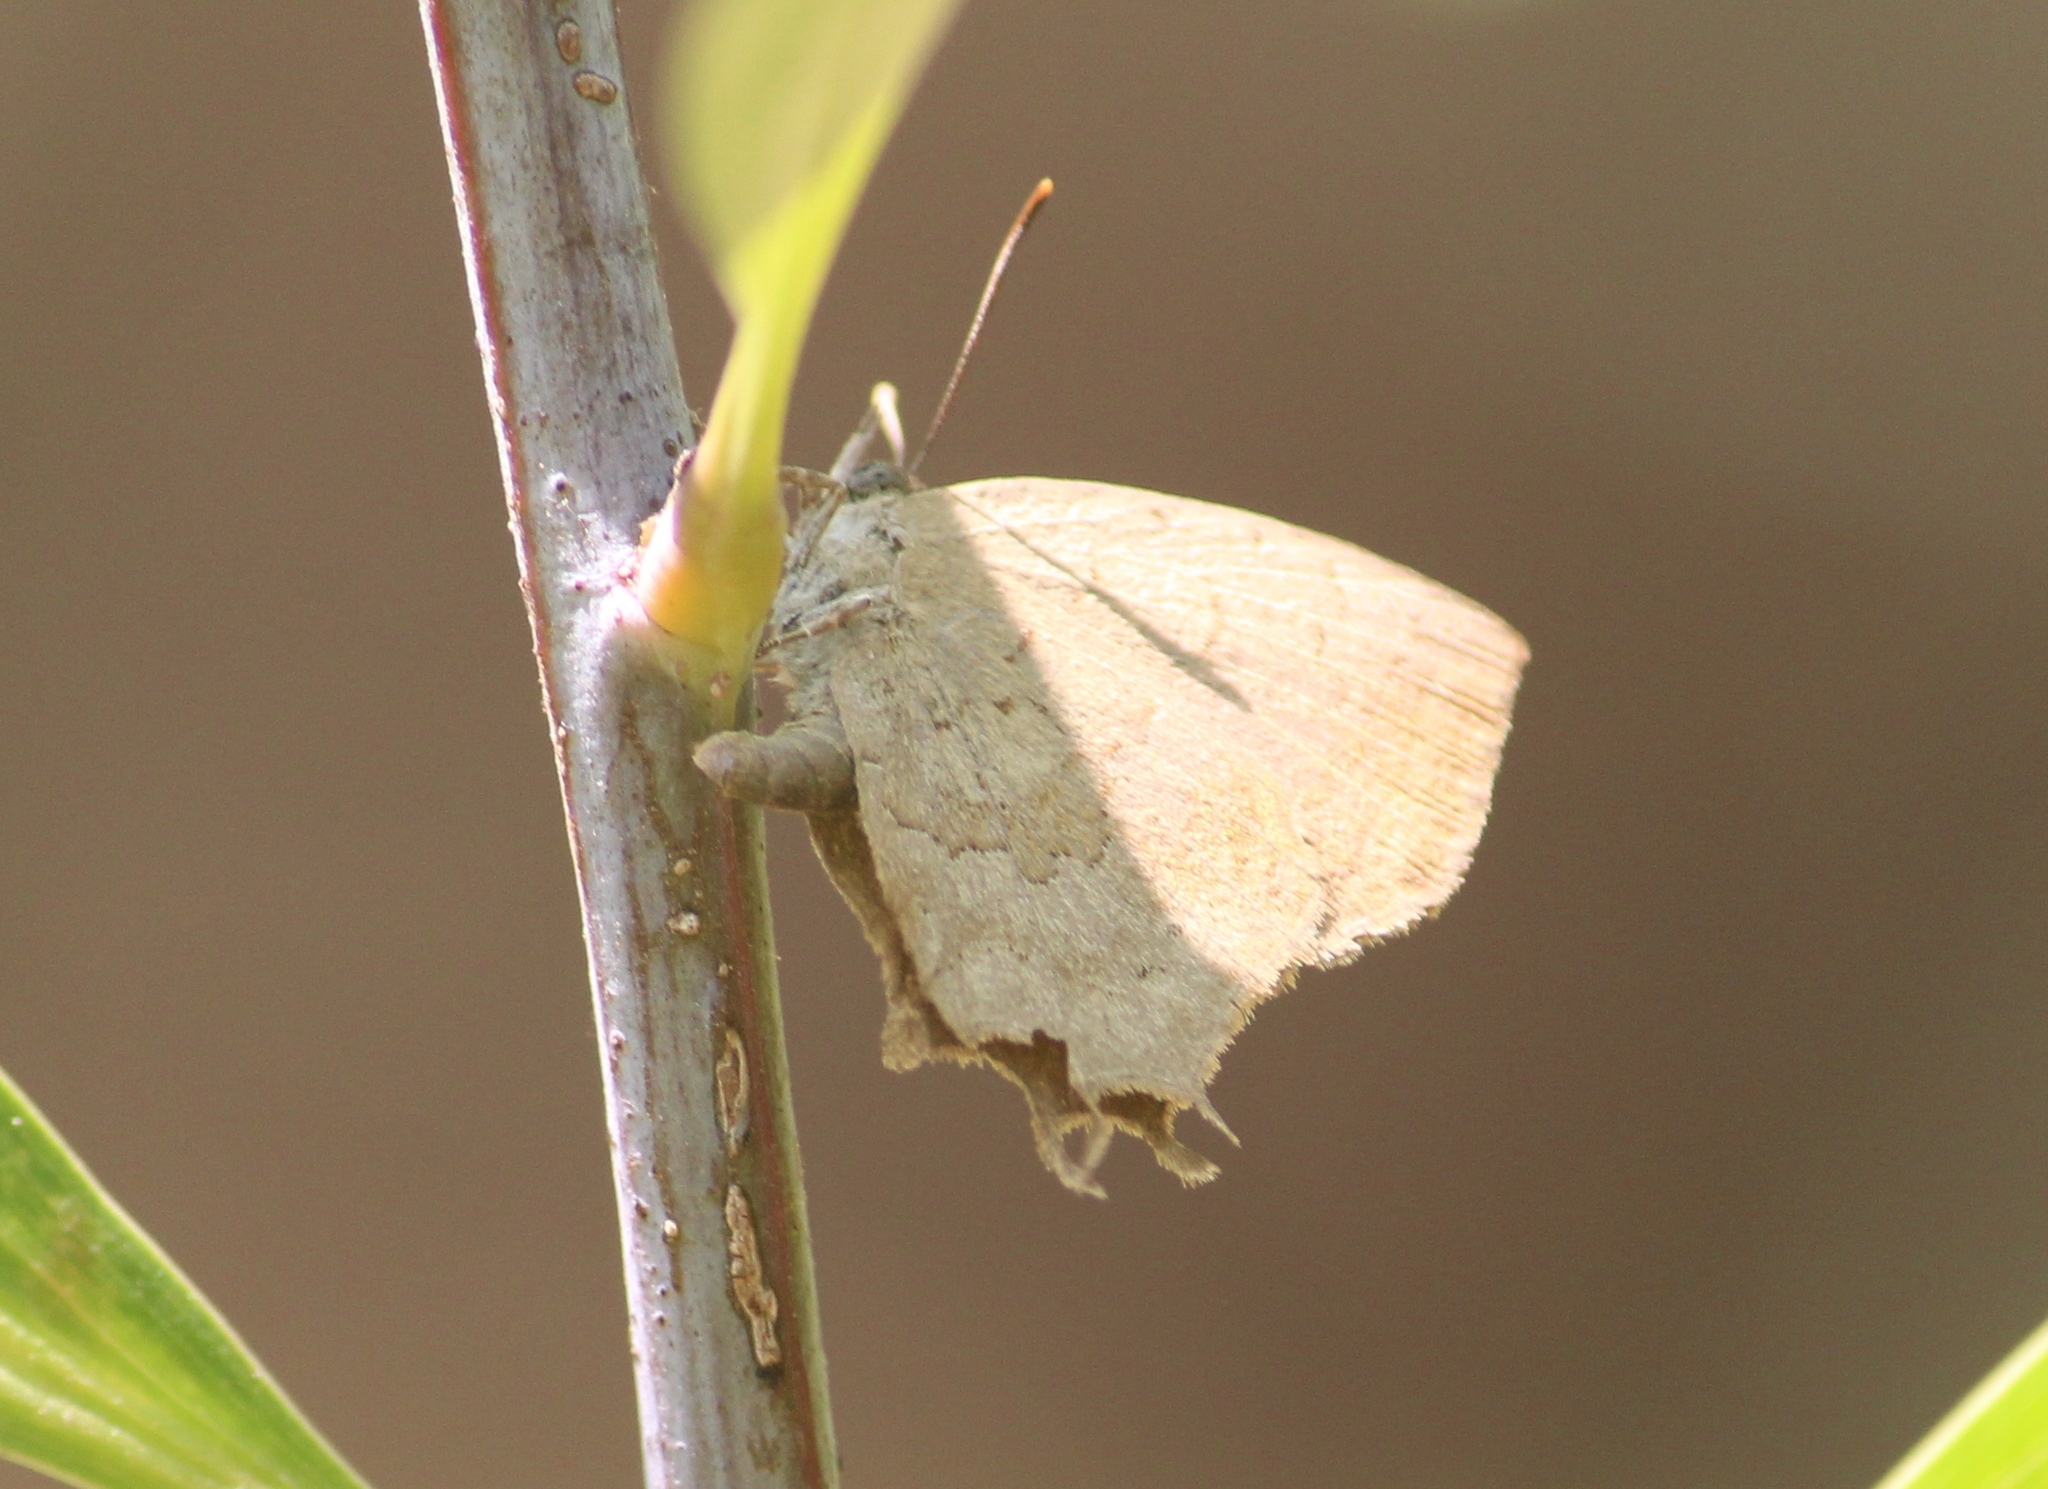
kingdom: Animalia
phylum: Arthropoda
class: Insecta
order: Lepidoptera
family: Lycaenidae
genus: Surendra
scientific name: Surendra quercetorum
